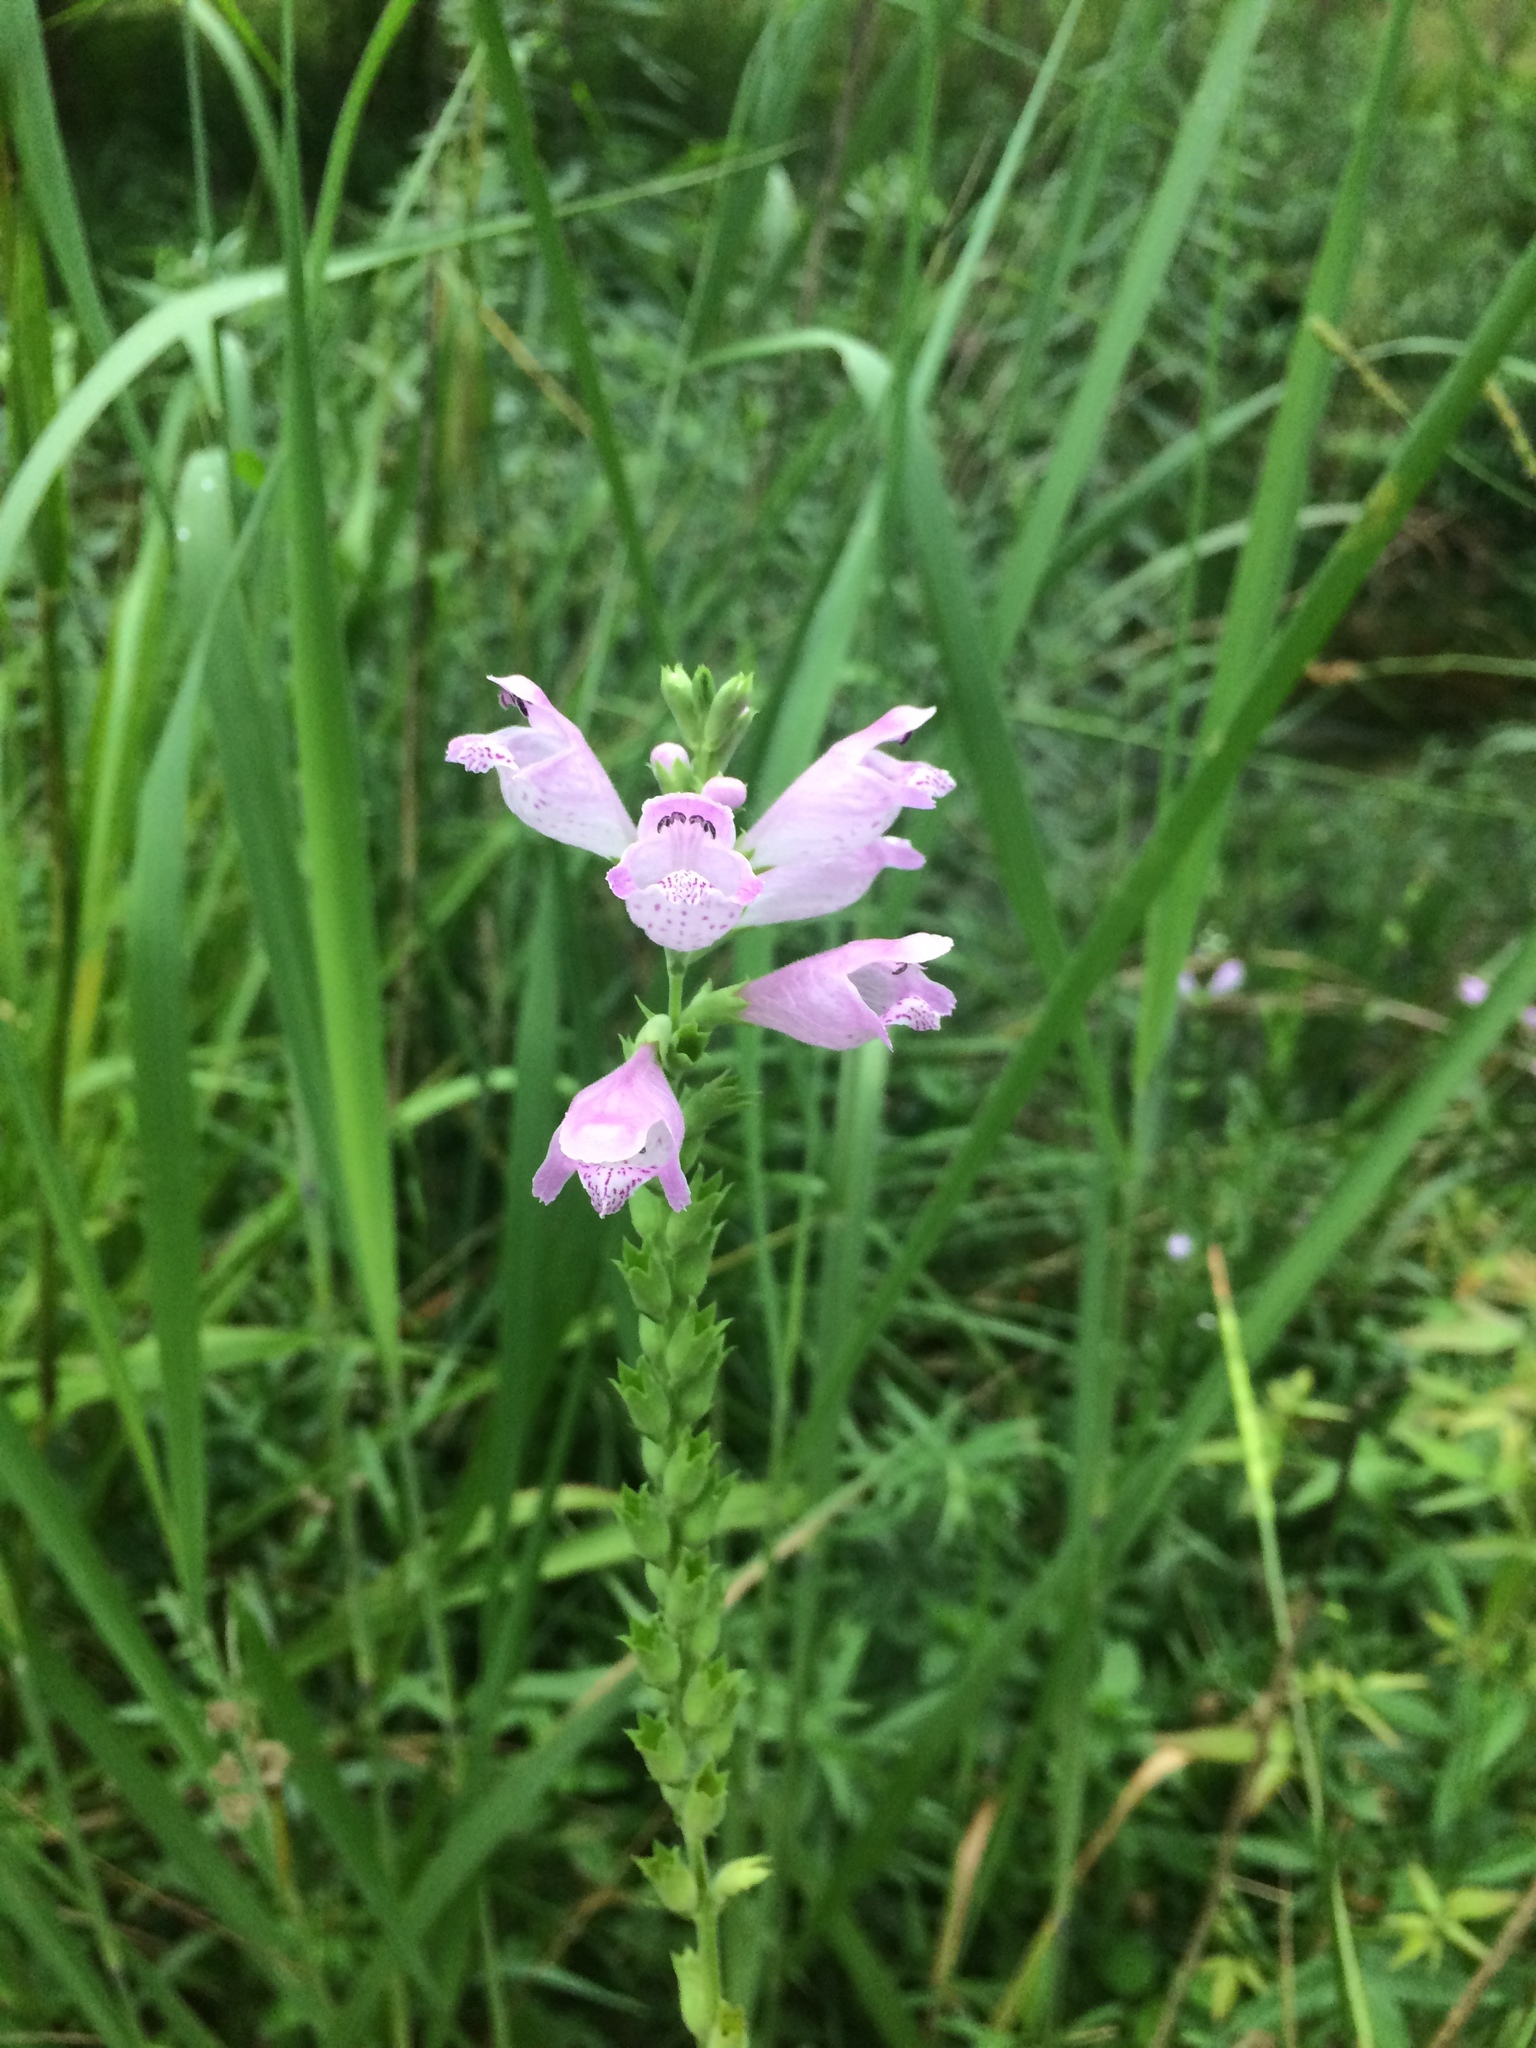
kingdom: Plantae
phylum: Tracheophyta
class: Magnoliopsida
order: Lamiales
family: Lamiaceae
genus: Physostegia
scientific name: Physostegia angustifolia
